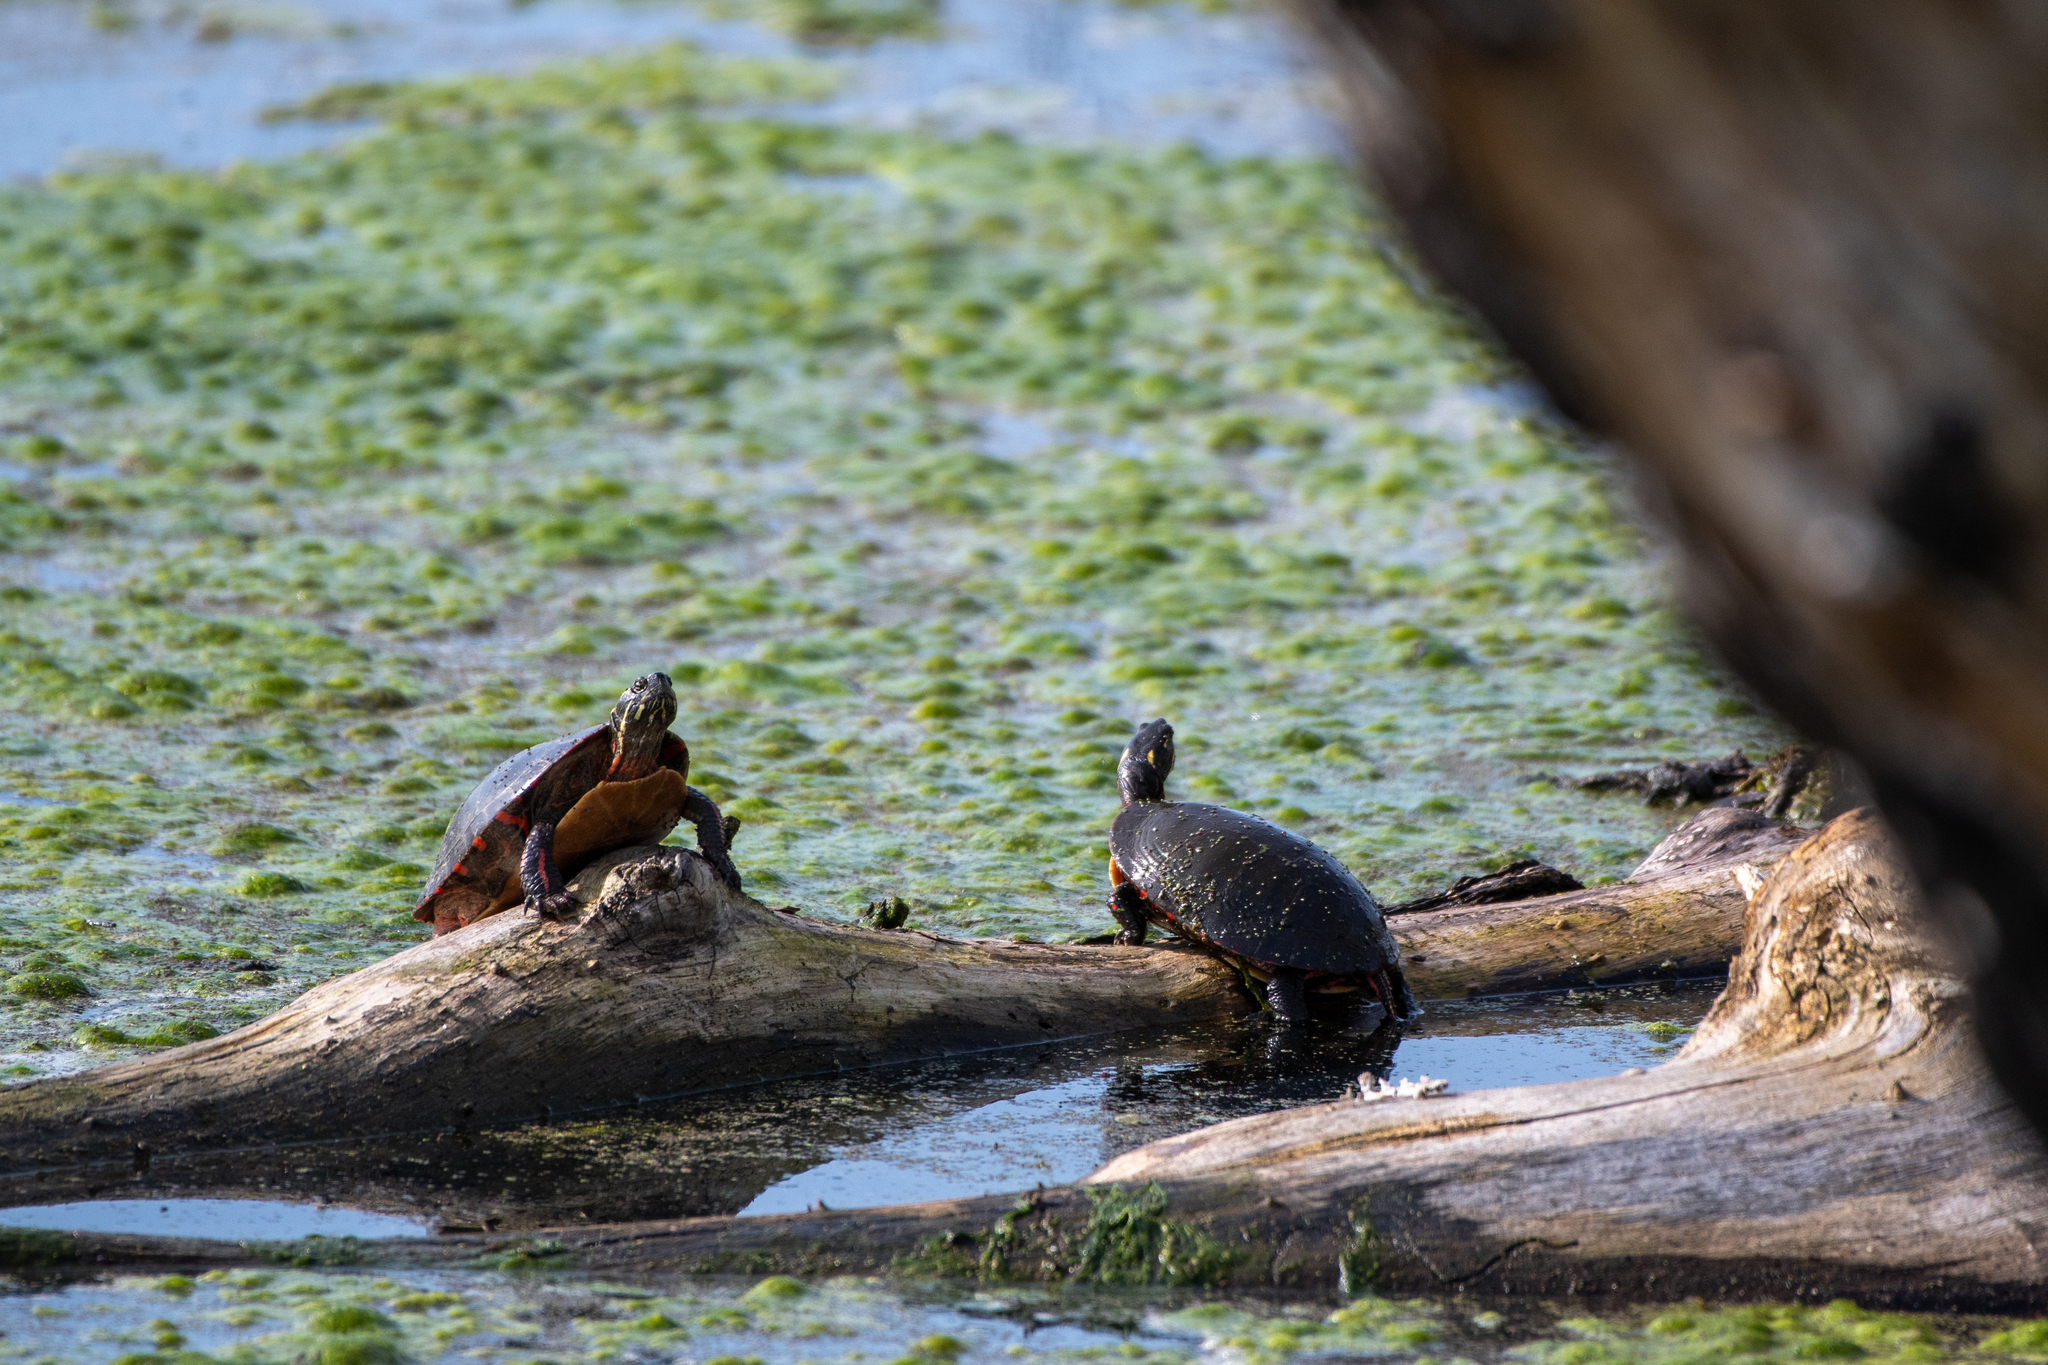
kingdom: Animalia
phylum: Chordata
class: Testudines
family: Emydidae
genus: Chrysemys
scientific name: Chrysemys picta
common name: Painted turtle
